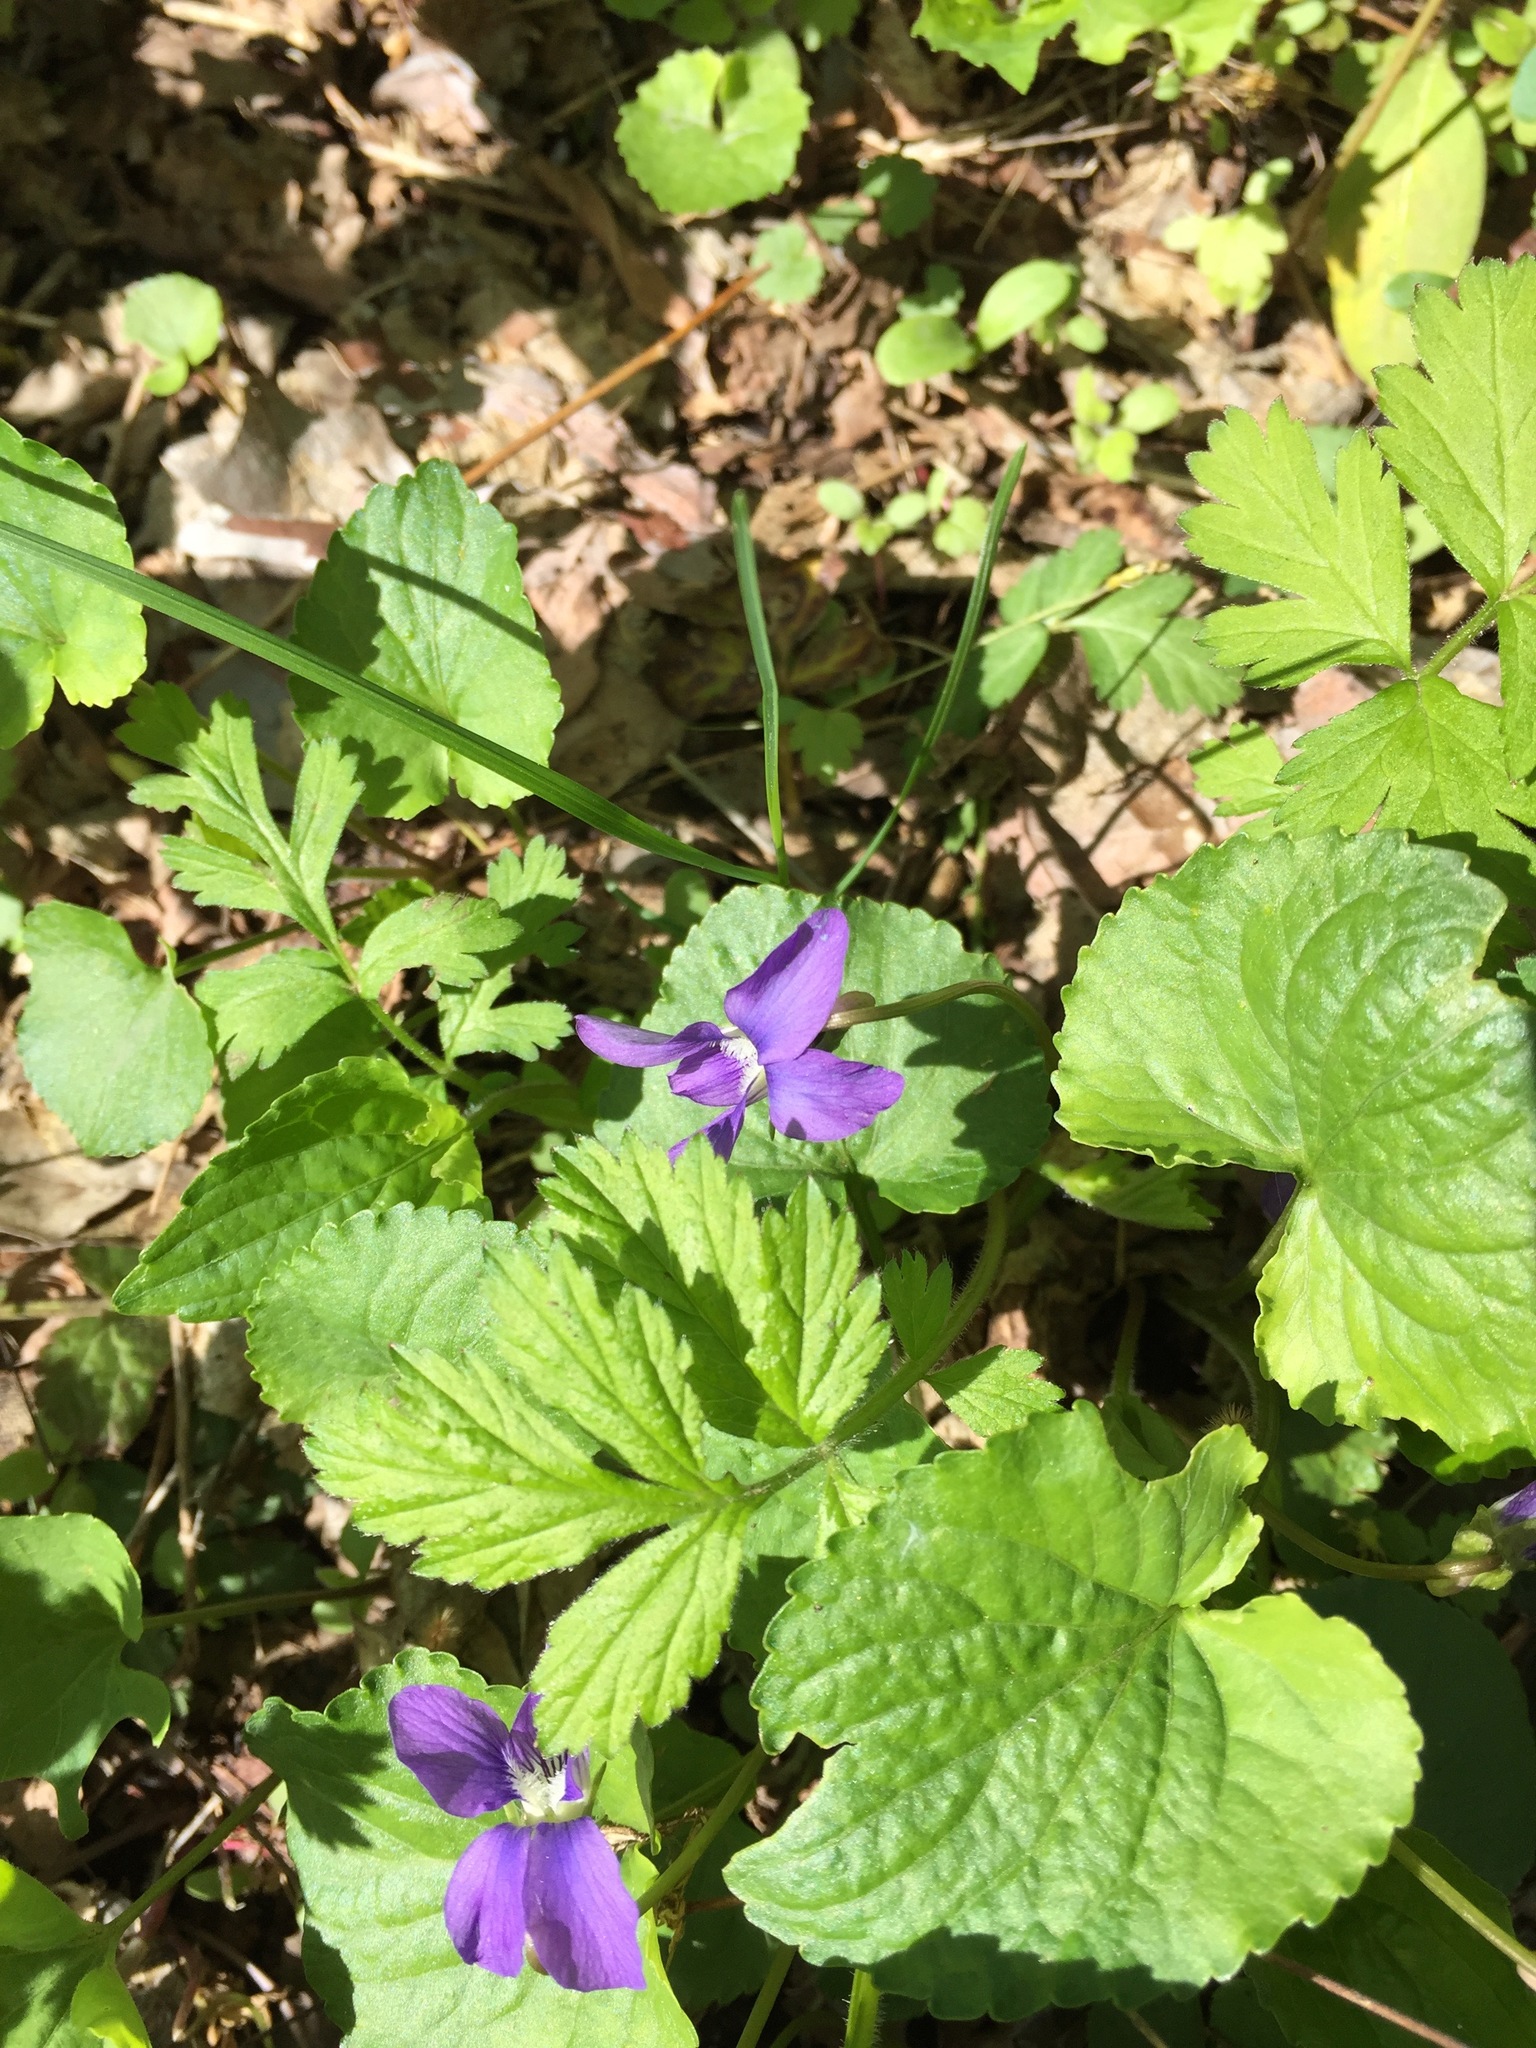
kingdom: Plantae
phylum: Tracheophyta
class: Magnoliopsida
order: Malpighiales
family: Violaceae
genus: Viola
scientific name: Viola sororia
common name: Dooryard violet
